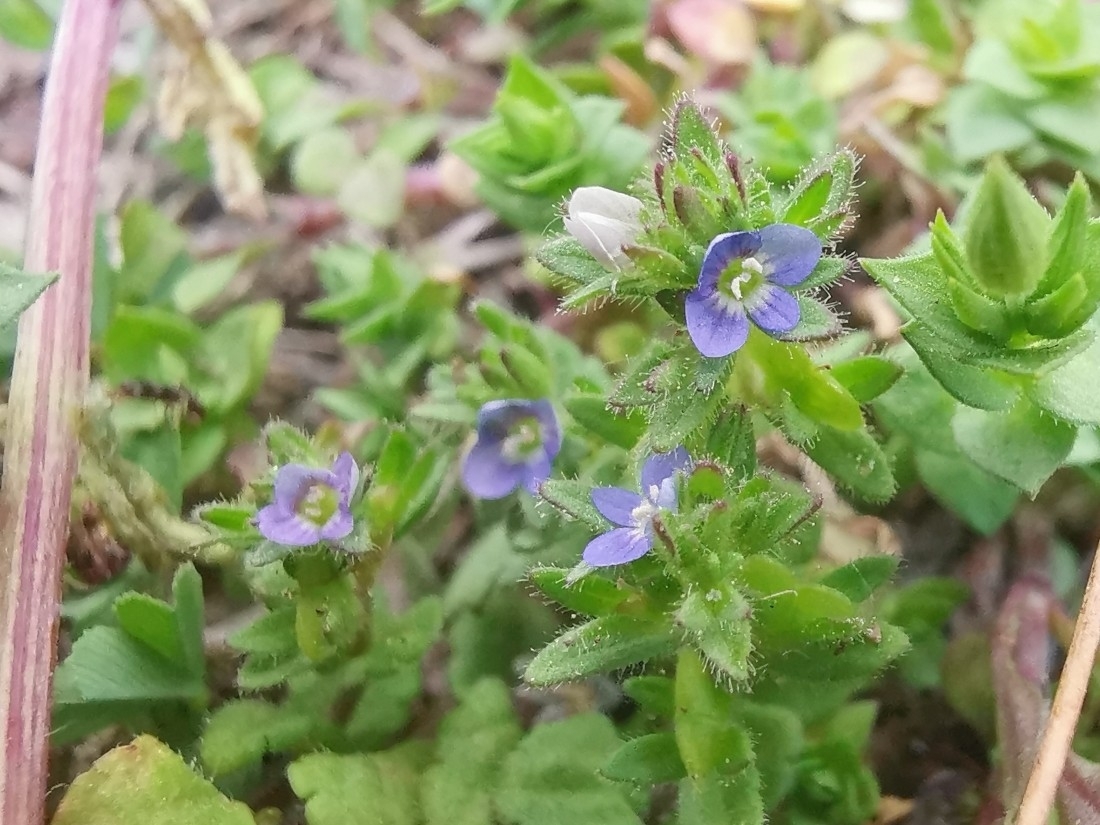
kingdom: Plantae
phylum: Tracheophyta
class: Magnoliopsida
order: Lamiales
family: Plantaginaceae
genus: Veronica
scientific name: Veronica arvensis
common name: Corn speedwell
